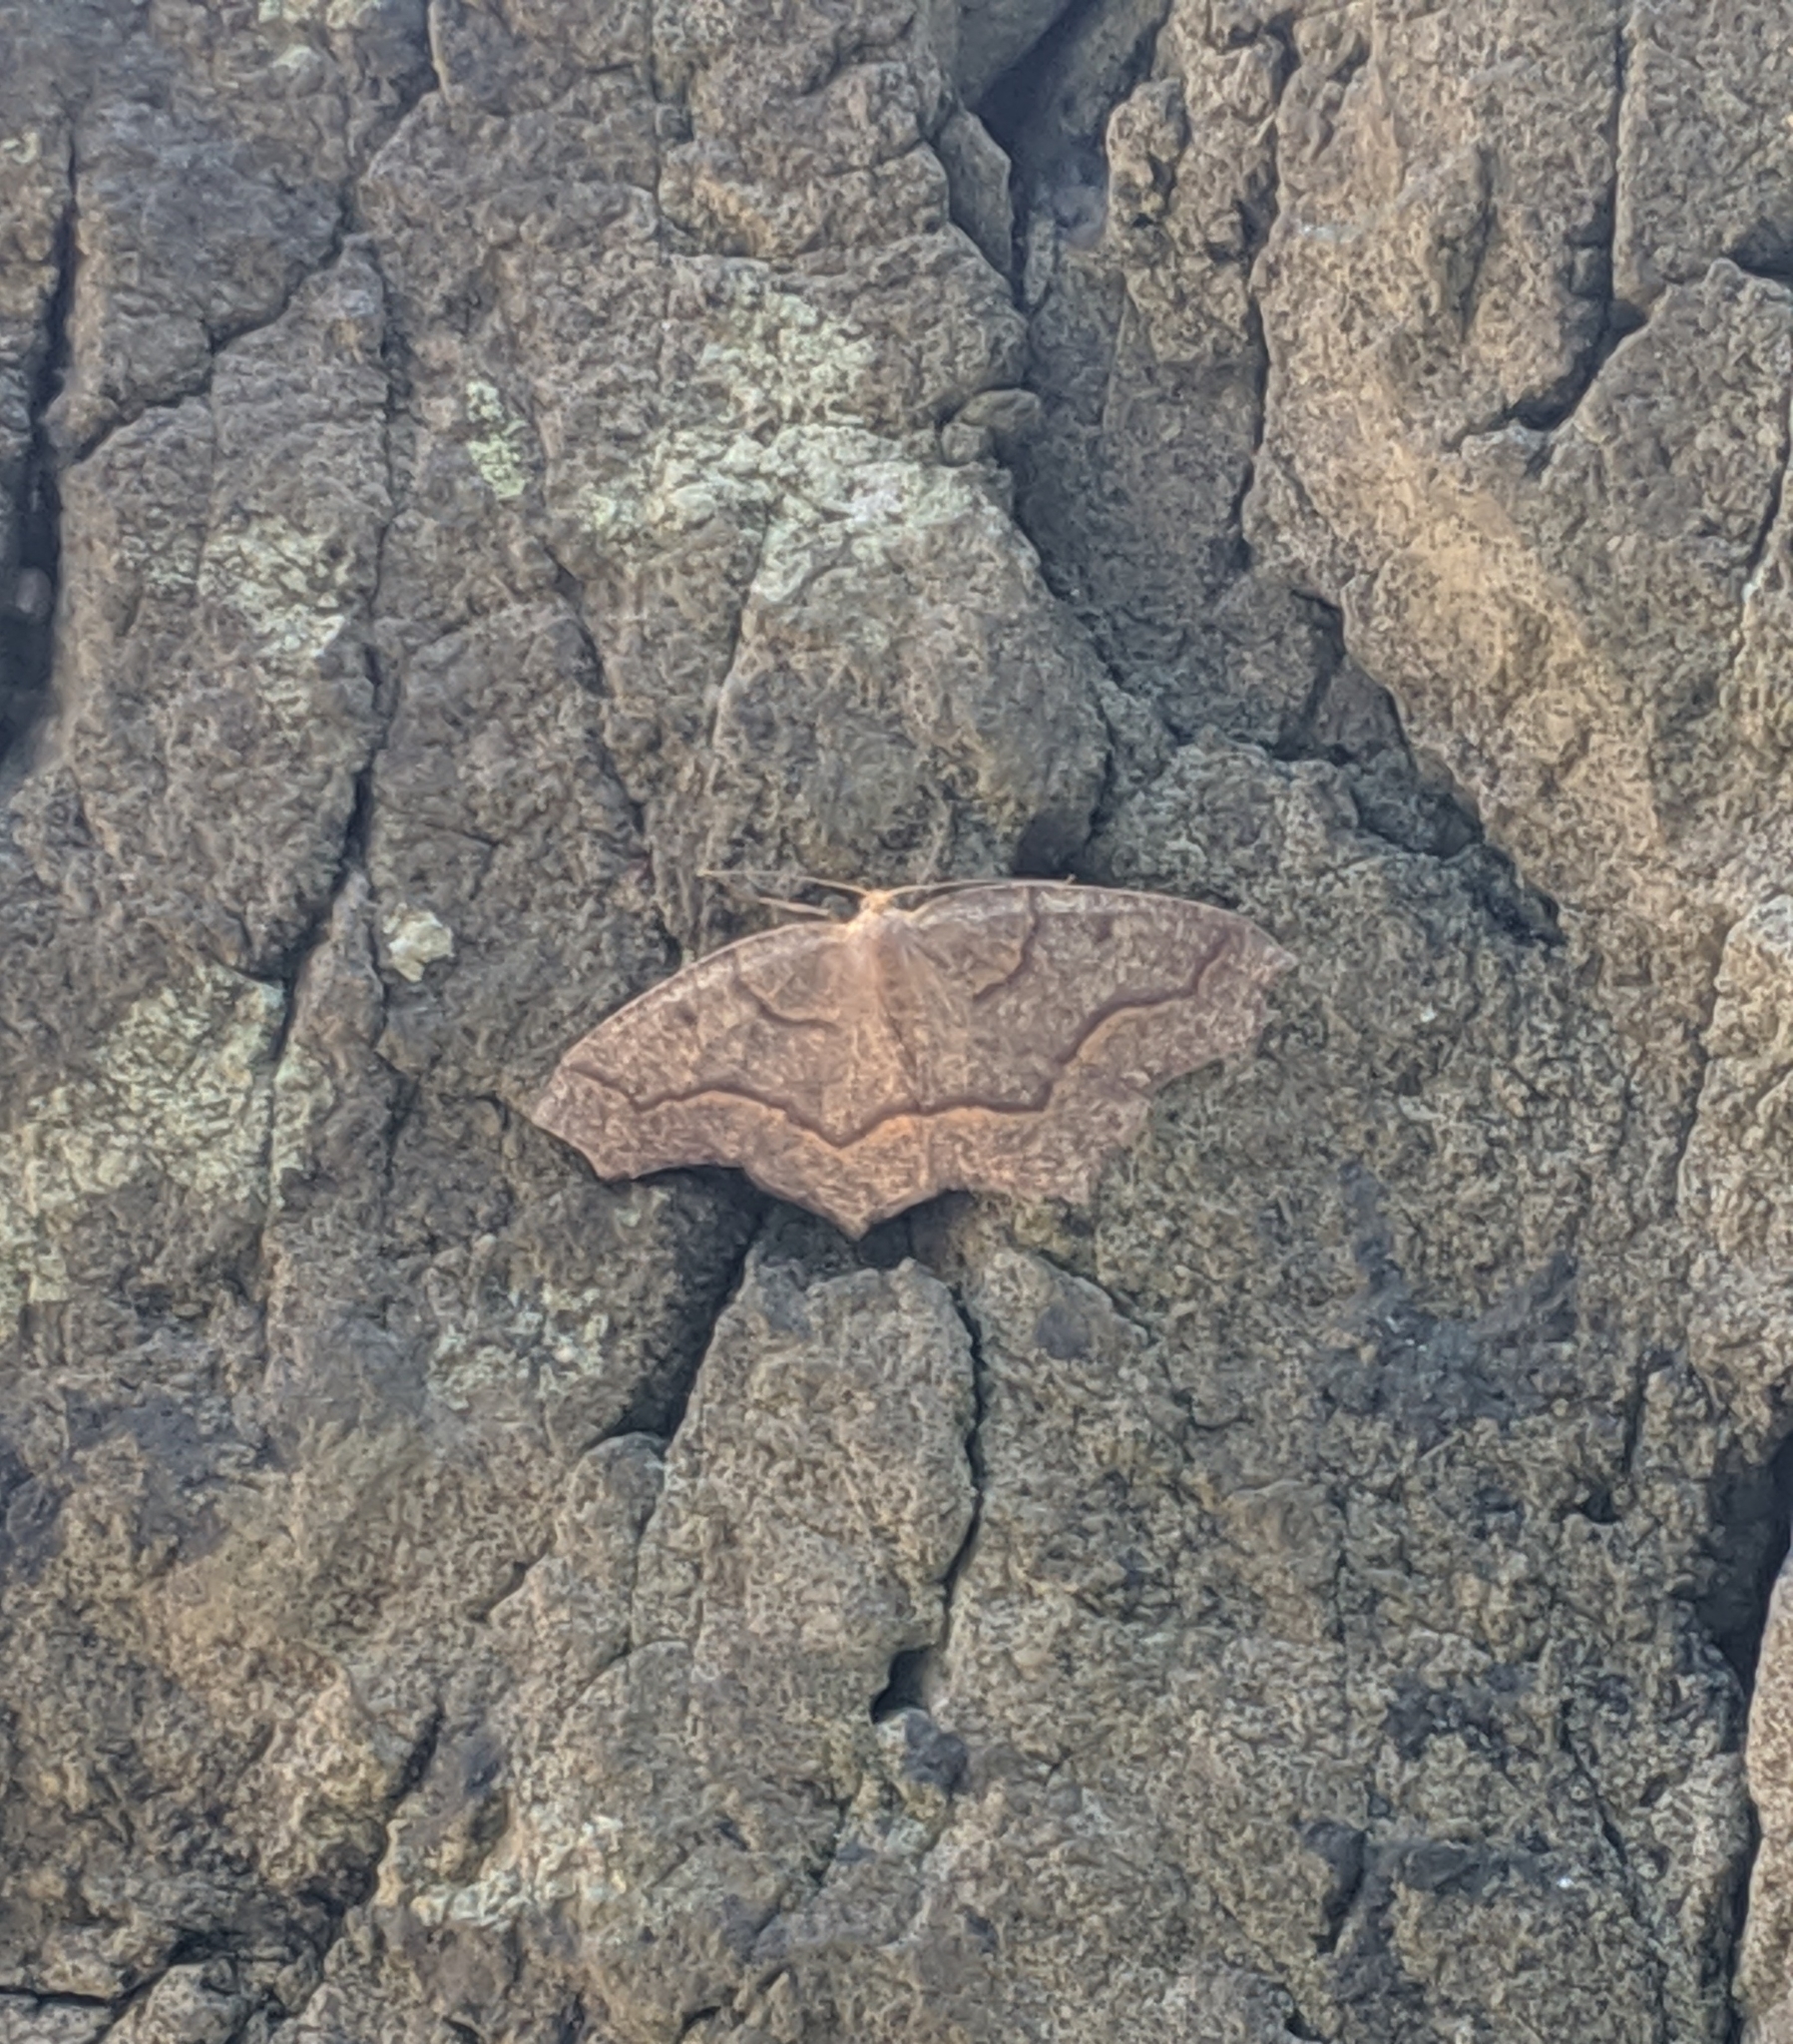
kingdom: Animalia
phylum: Arthropoda
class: Insecta
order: Lepidoptera
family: Geometridae
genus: Lambdina
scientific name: Lambdina fiscellaria
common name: Hemlock looper
